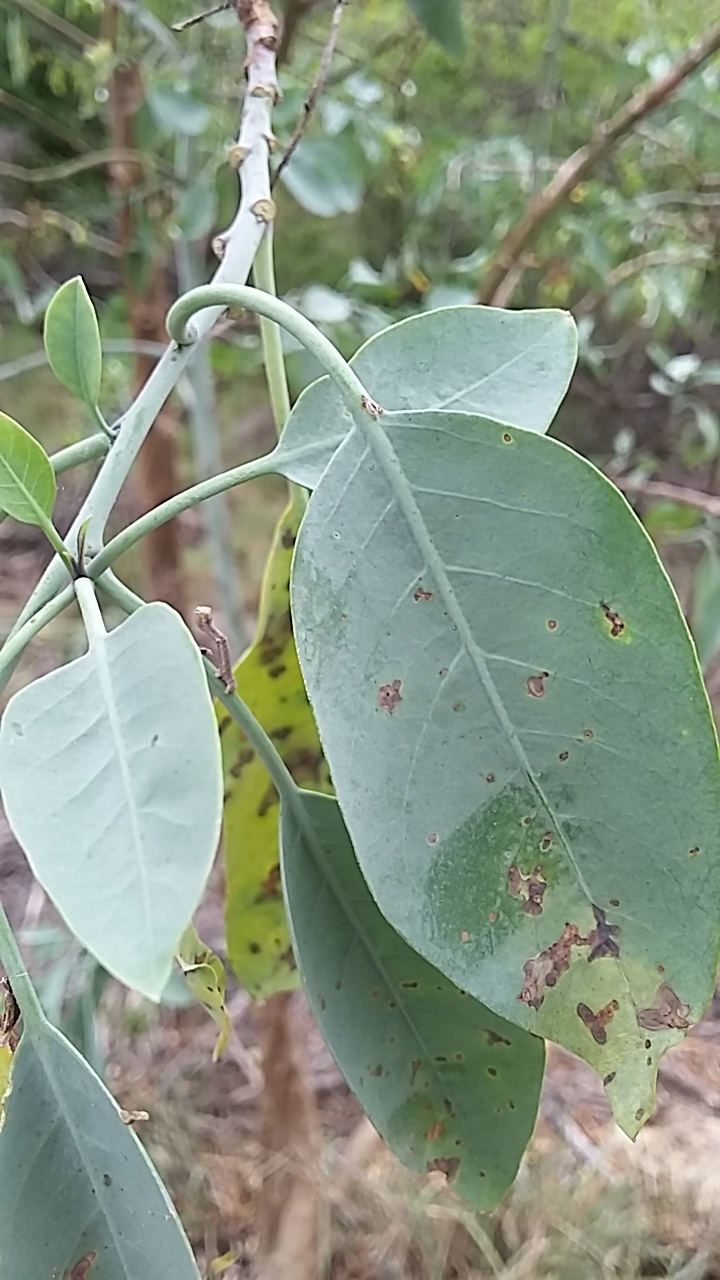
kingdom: Plantae
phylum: Tracheophyta
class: Magnoliopsida
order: Solanales
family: Solanaceae
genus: Nicotiana
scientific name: Nicotiana glauca
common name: Tree tobacco
